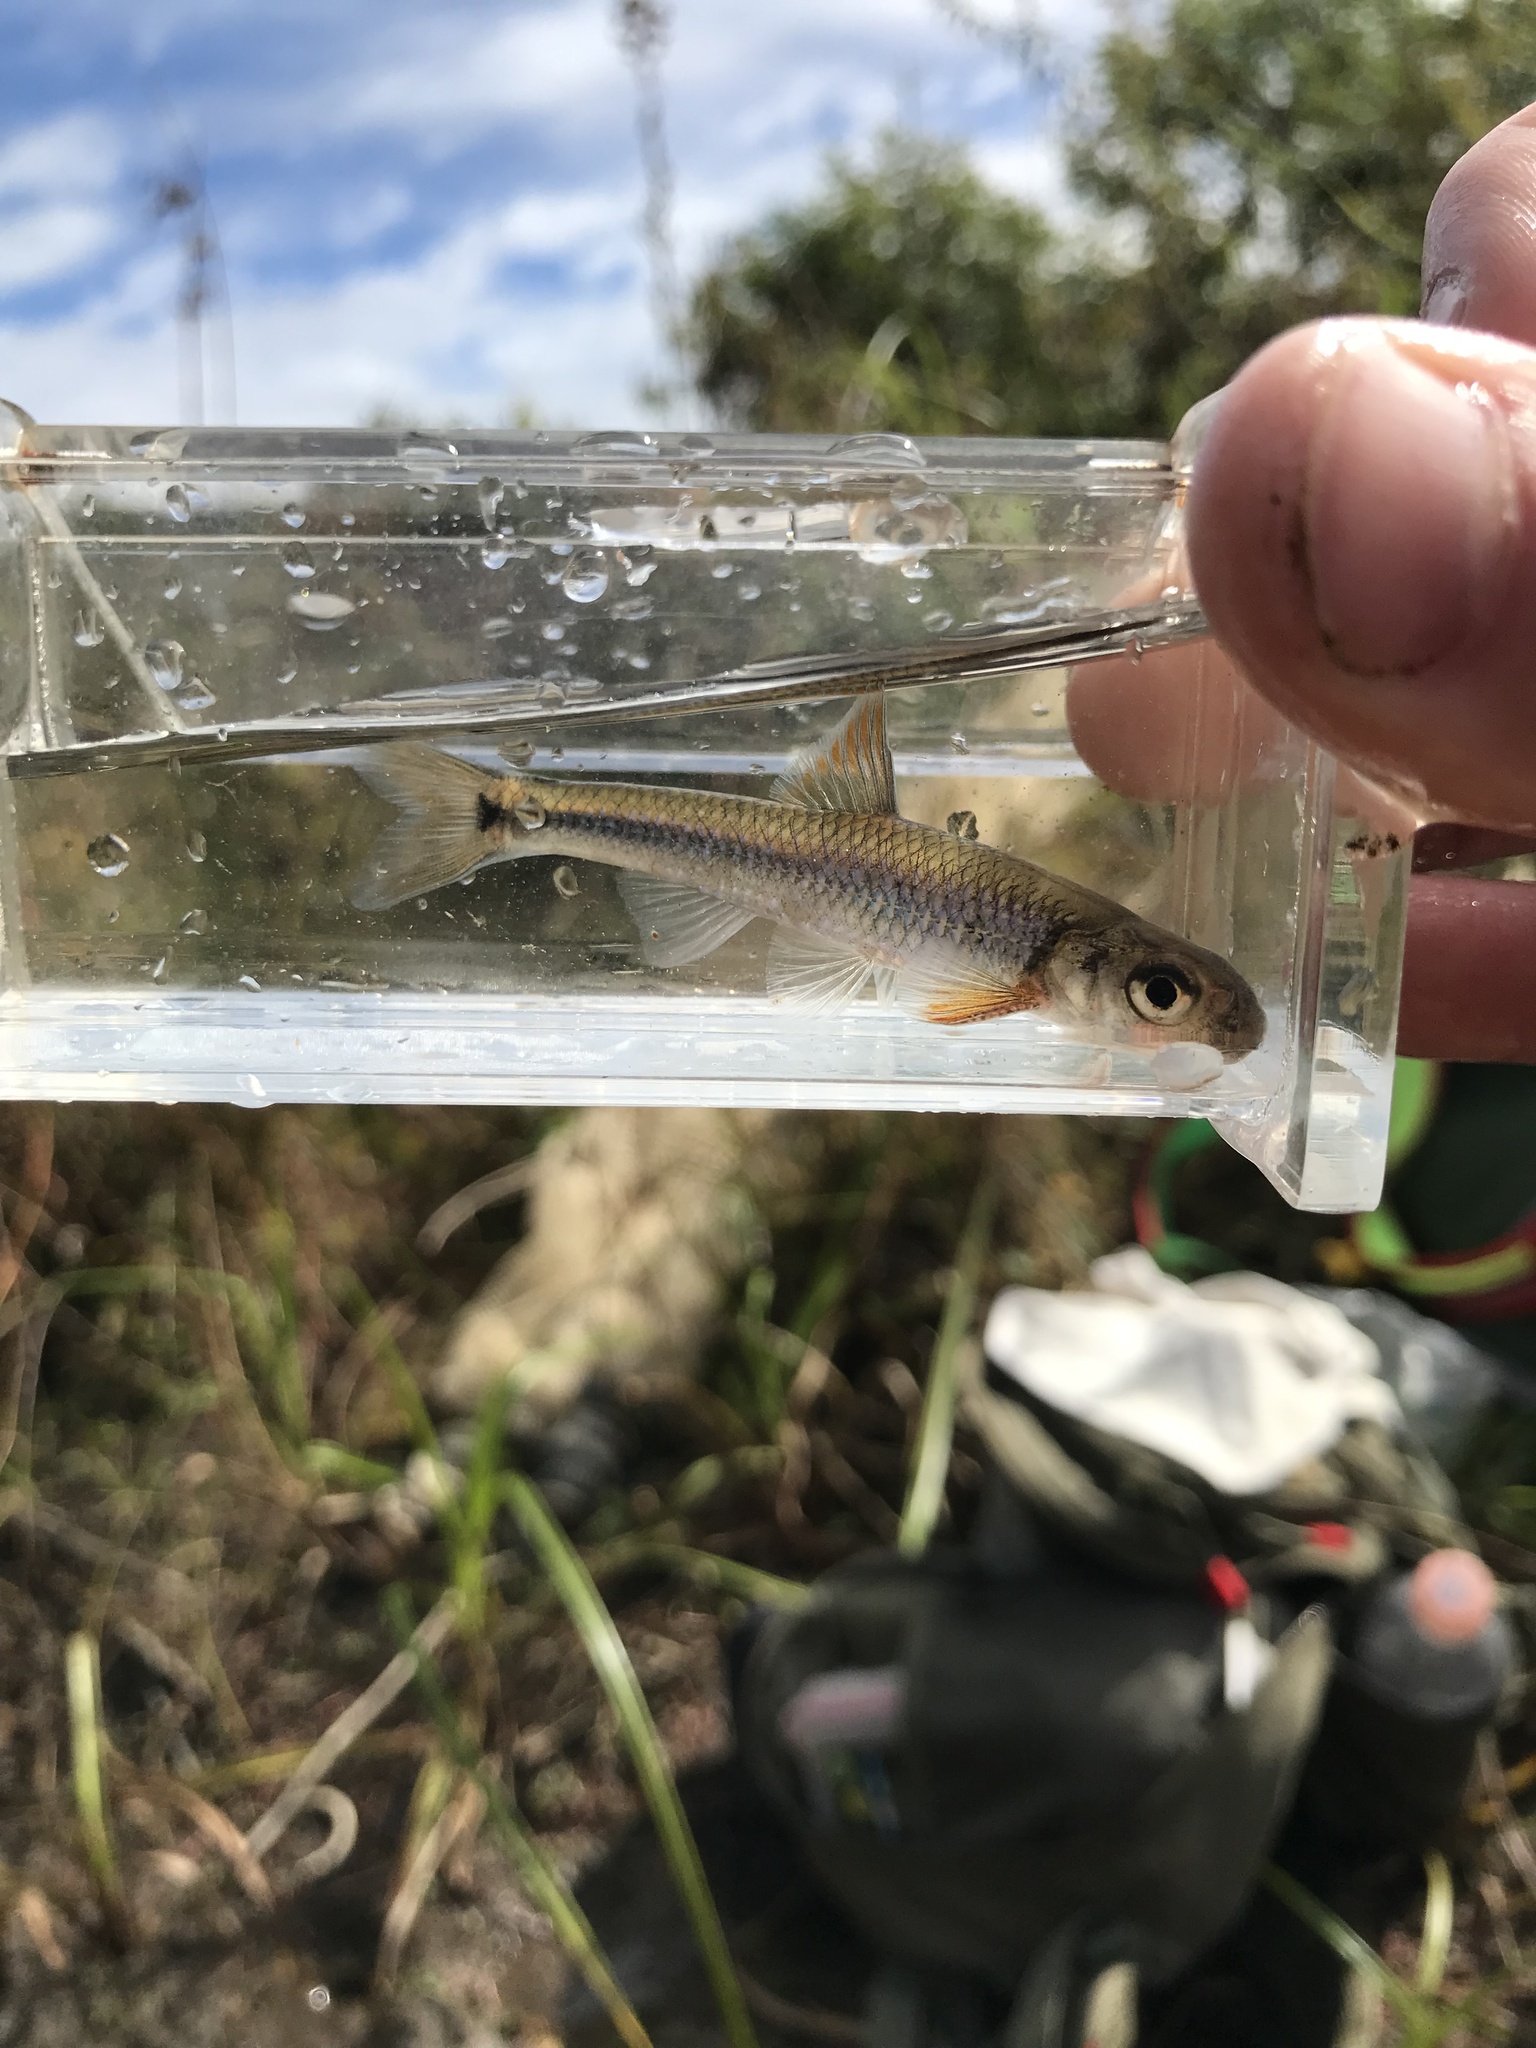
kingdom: Animalia
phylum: Chordata
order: Cypriniformes
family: Cyprinidae
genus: Notropis
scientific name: Notropis
